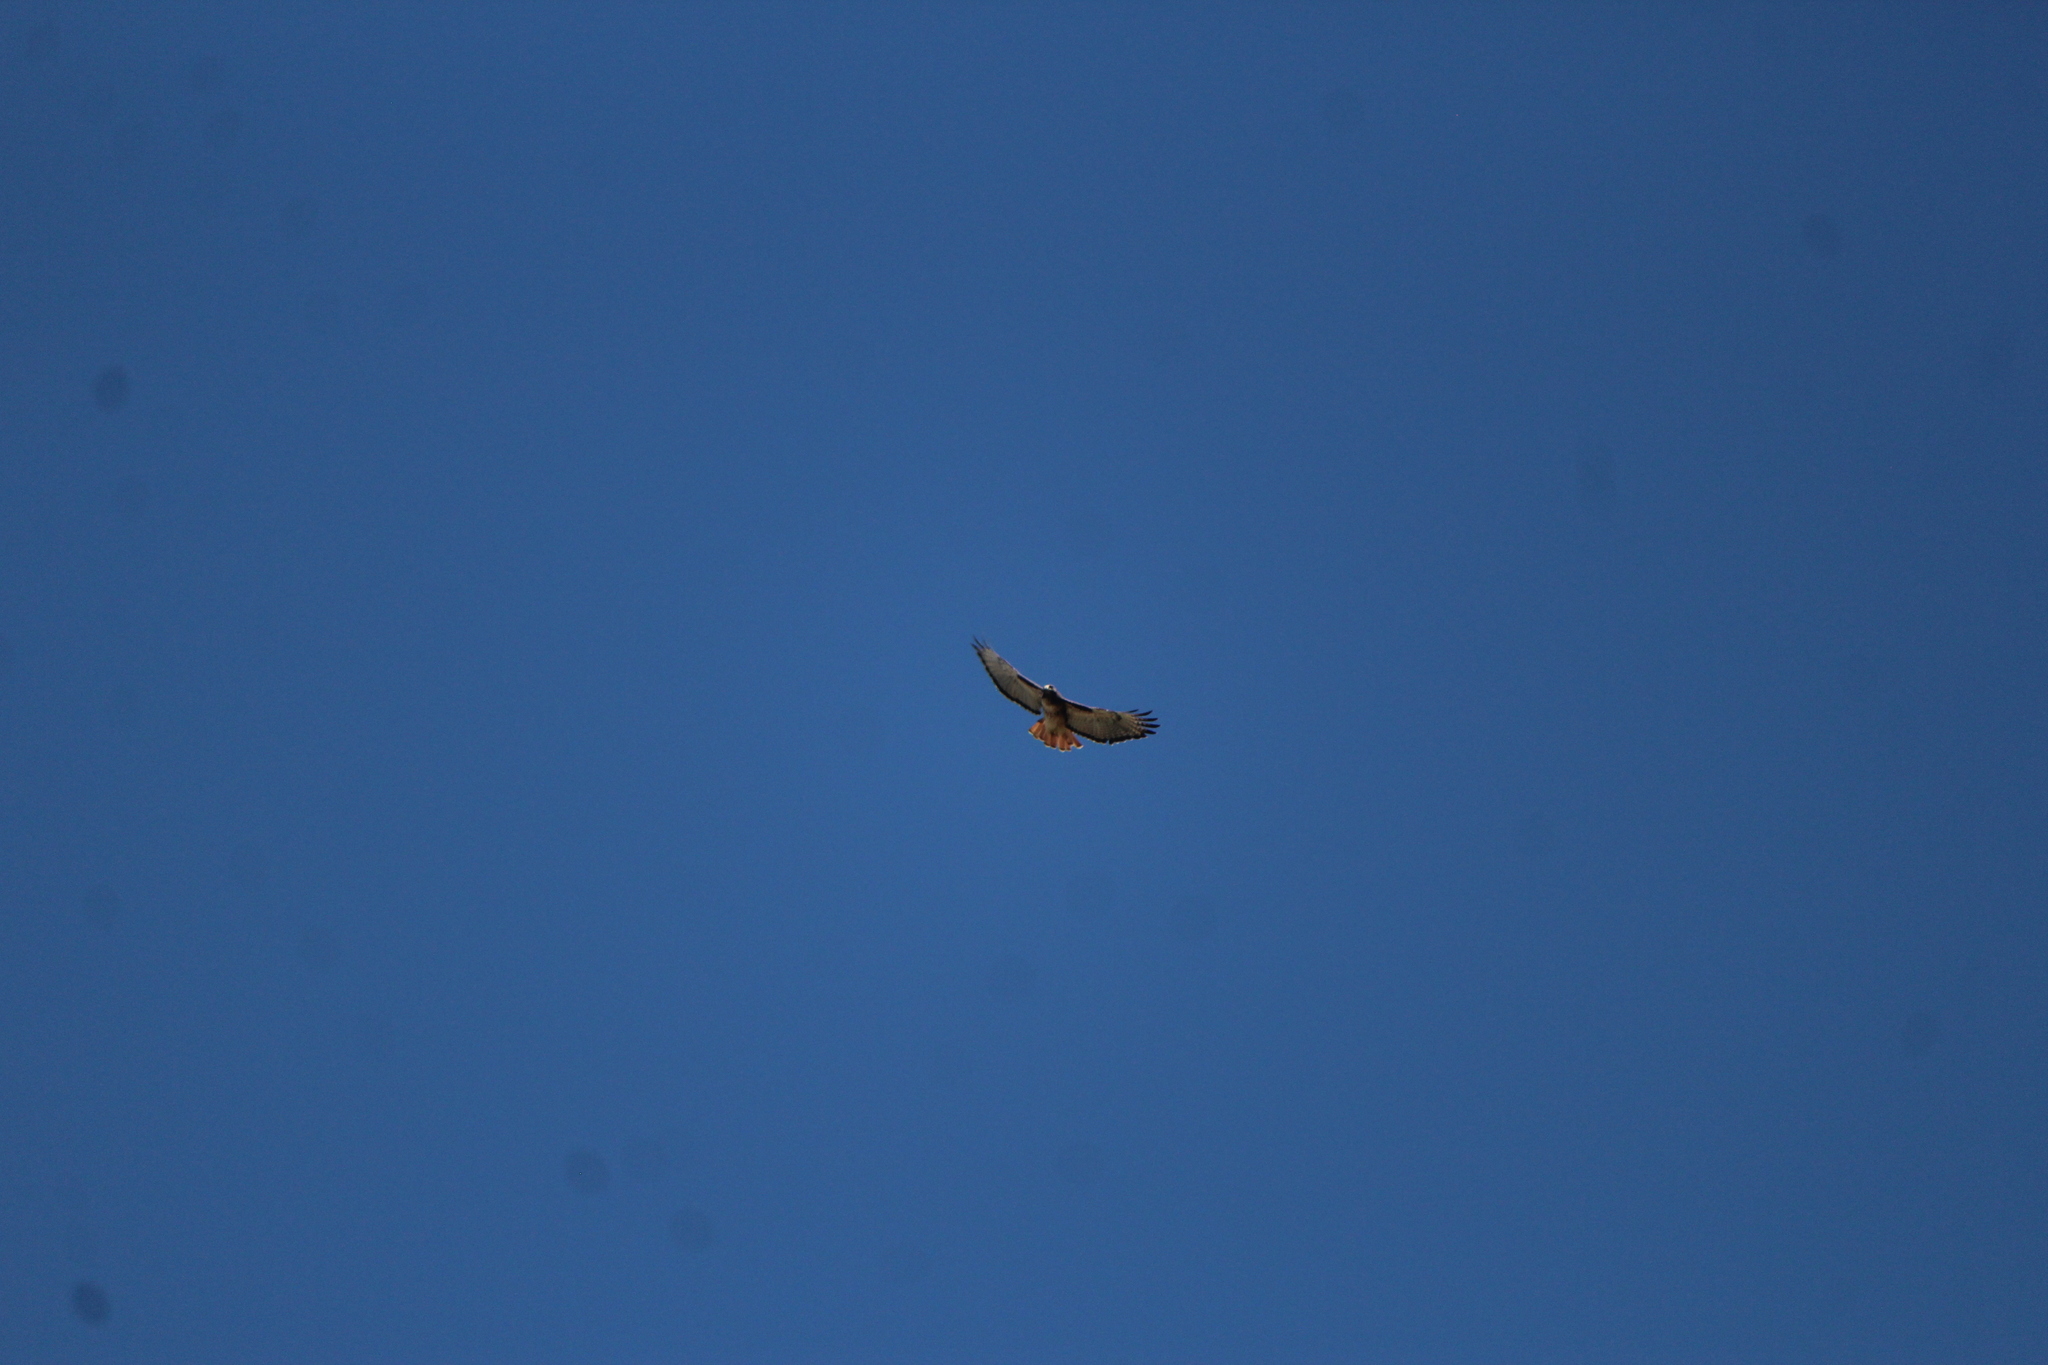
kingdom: Animalia
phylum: Chordata
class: Aves
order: Accipitriformes
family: Accipitridae
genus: Buteo
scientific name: Buteo jamaicensis
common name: Red-tailed hawk
